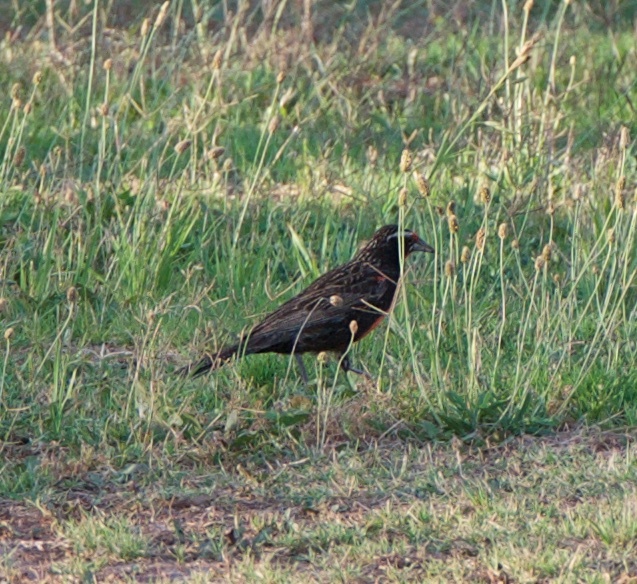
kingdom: Animalia
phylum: Chordata
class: Aves
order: Passeriformes
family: Icteridae
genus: Sturnella
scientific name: Sturnella loyca
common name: Long-tailed meadowlark
